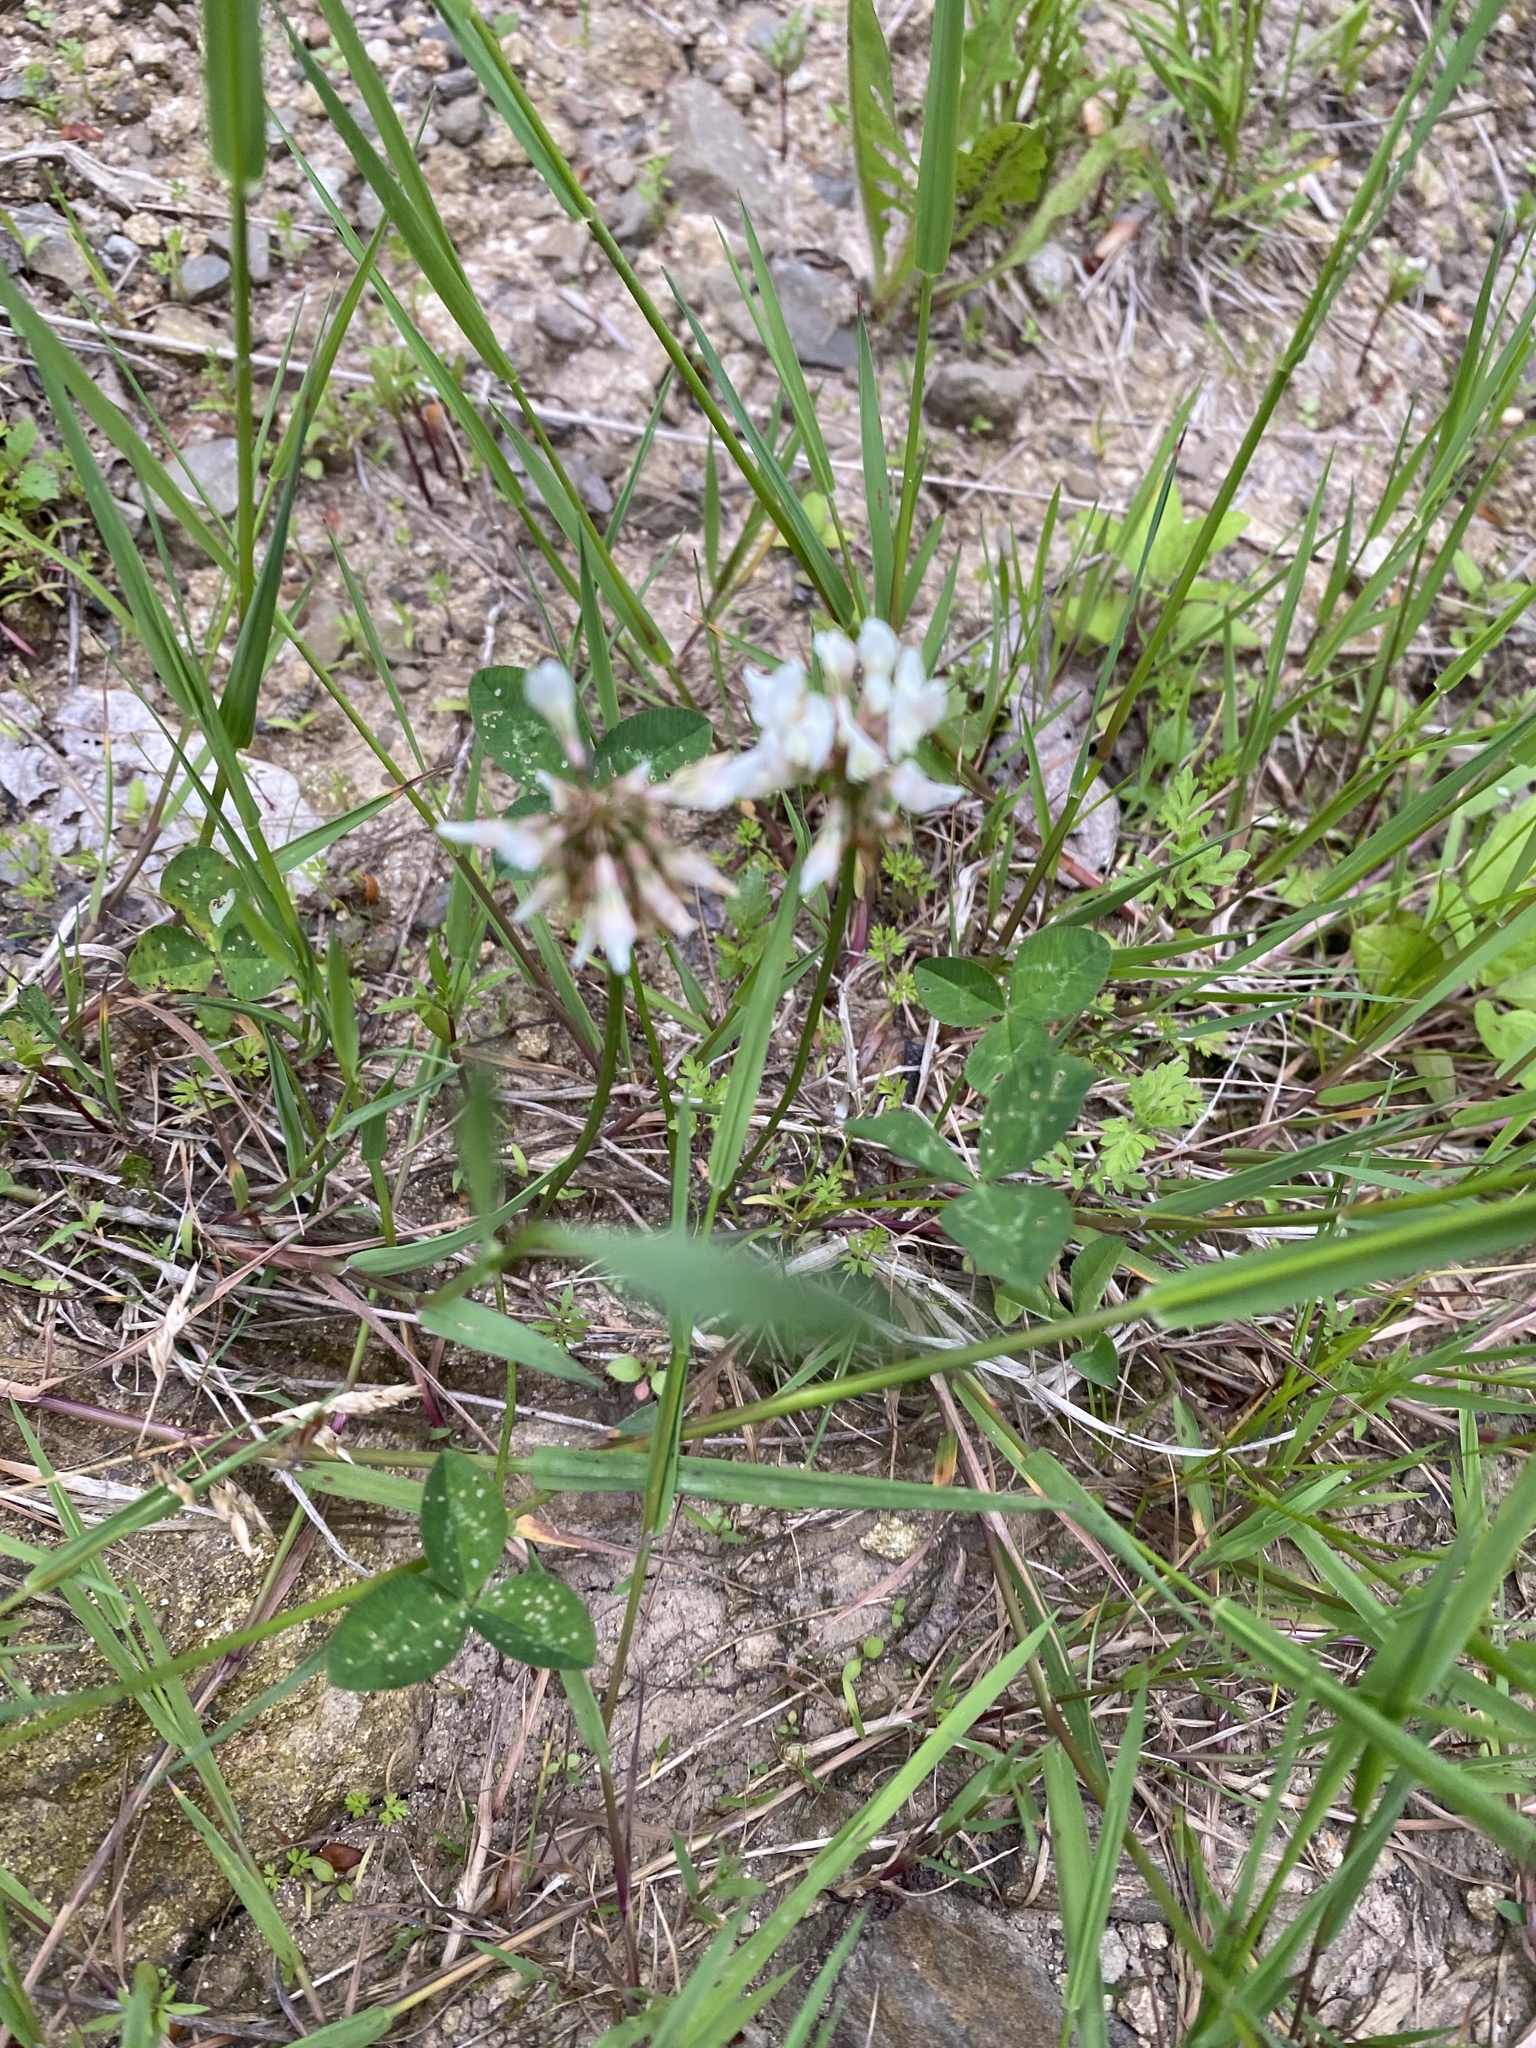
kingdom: Plantae
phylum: Tracheophyta
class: Magnoliopsida
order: Fabales
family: Fabaceae
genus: Trifolium
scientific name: Trifolium repens
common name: White clover
